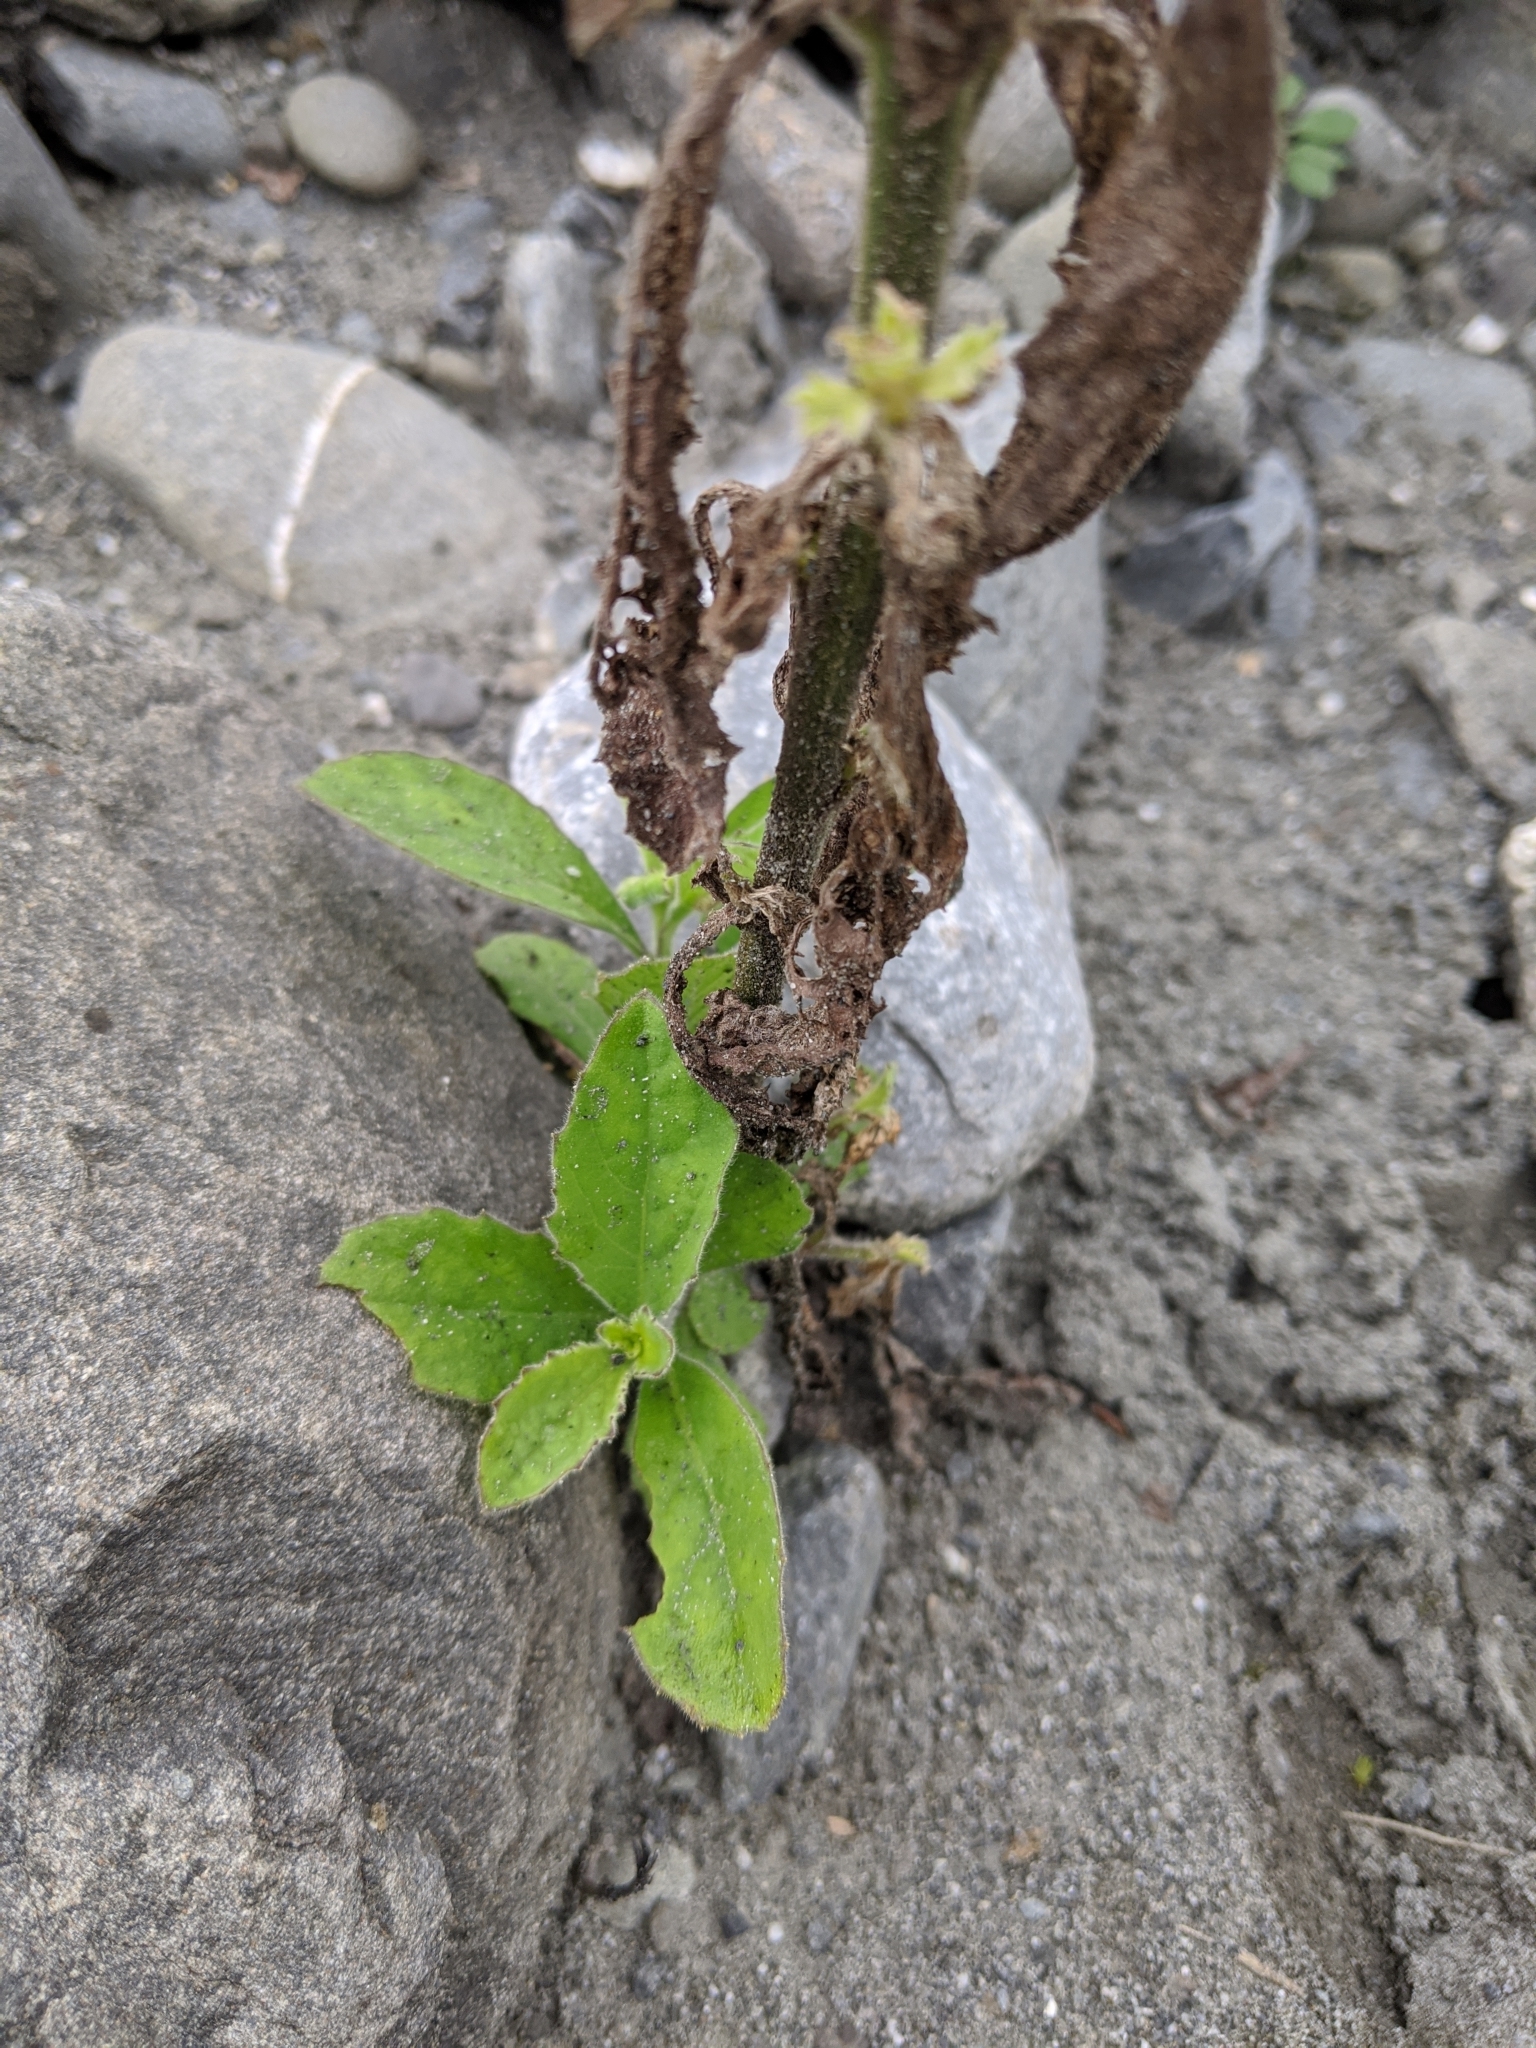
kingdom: Plantae
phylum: Tracheophyta
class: Magnoliopsida
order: Asterales
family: Asteraceae
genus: Blumea
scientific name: Blumea aromatica
